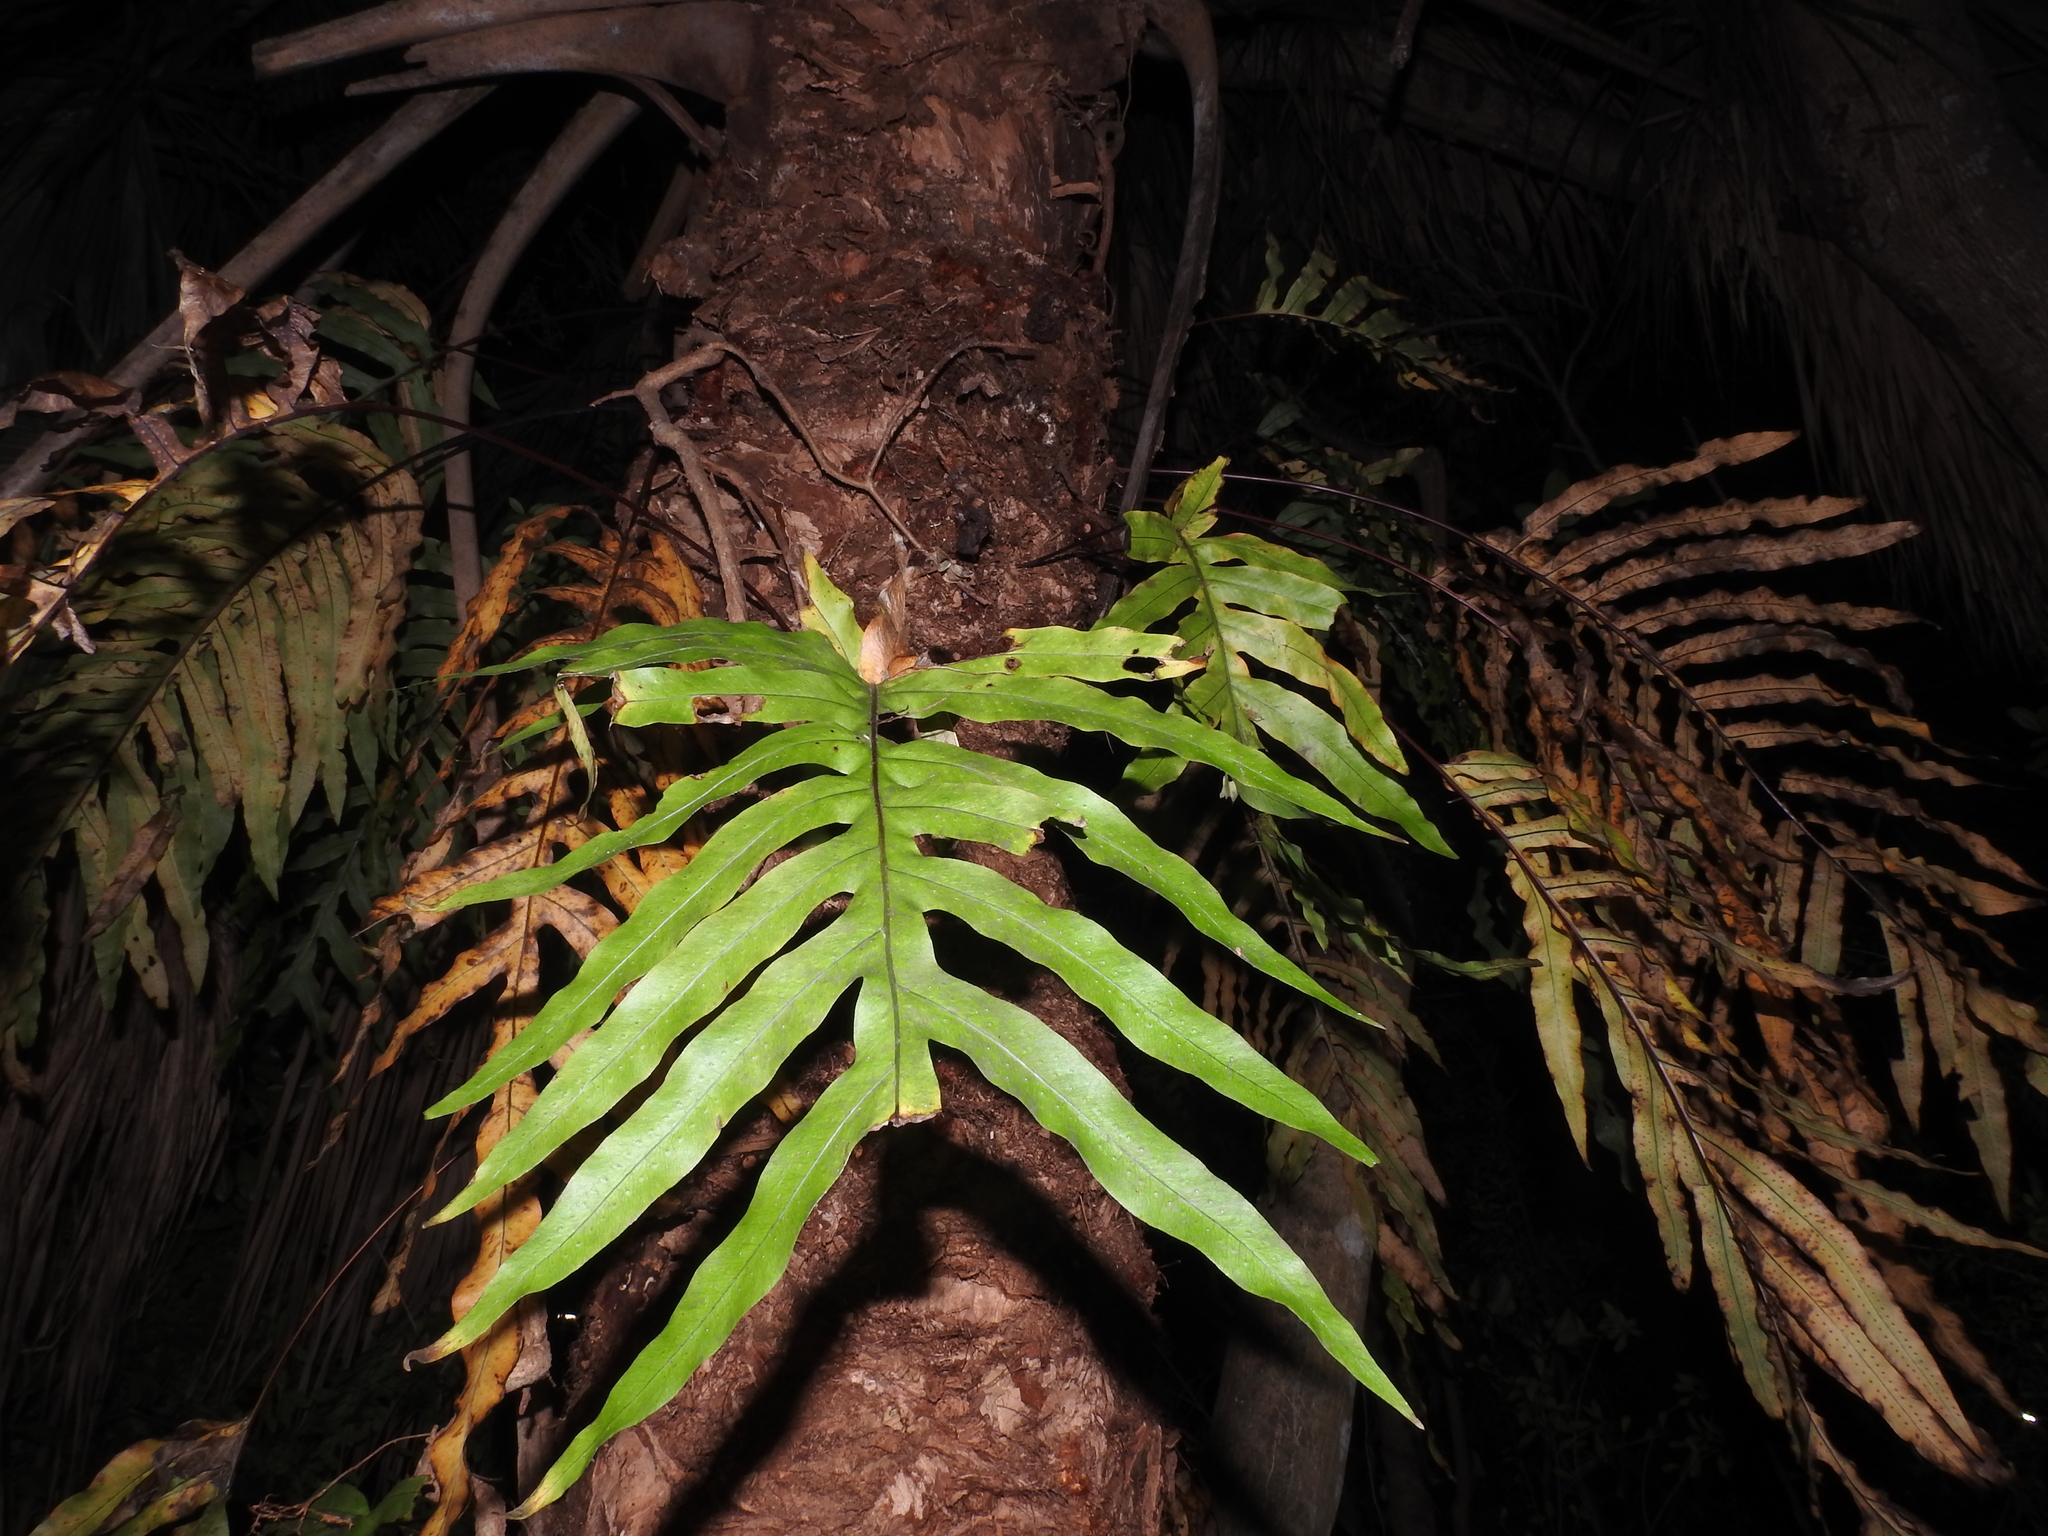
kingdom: Plantae
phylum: Tracheophyta
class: Polypodiopsida
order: Polypodiales
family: Polypodiaceae
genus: Phlebodium
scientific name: Phlebodium aureum
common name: Gold-foot fern
